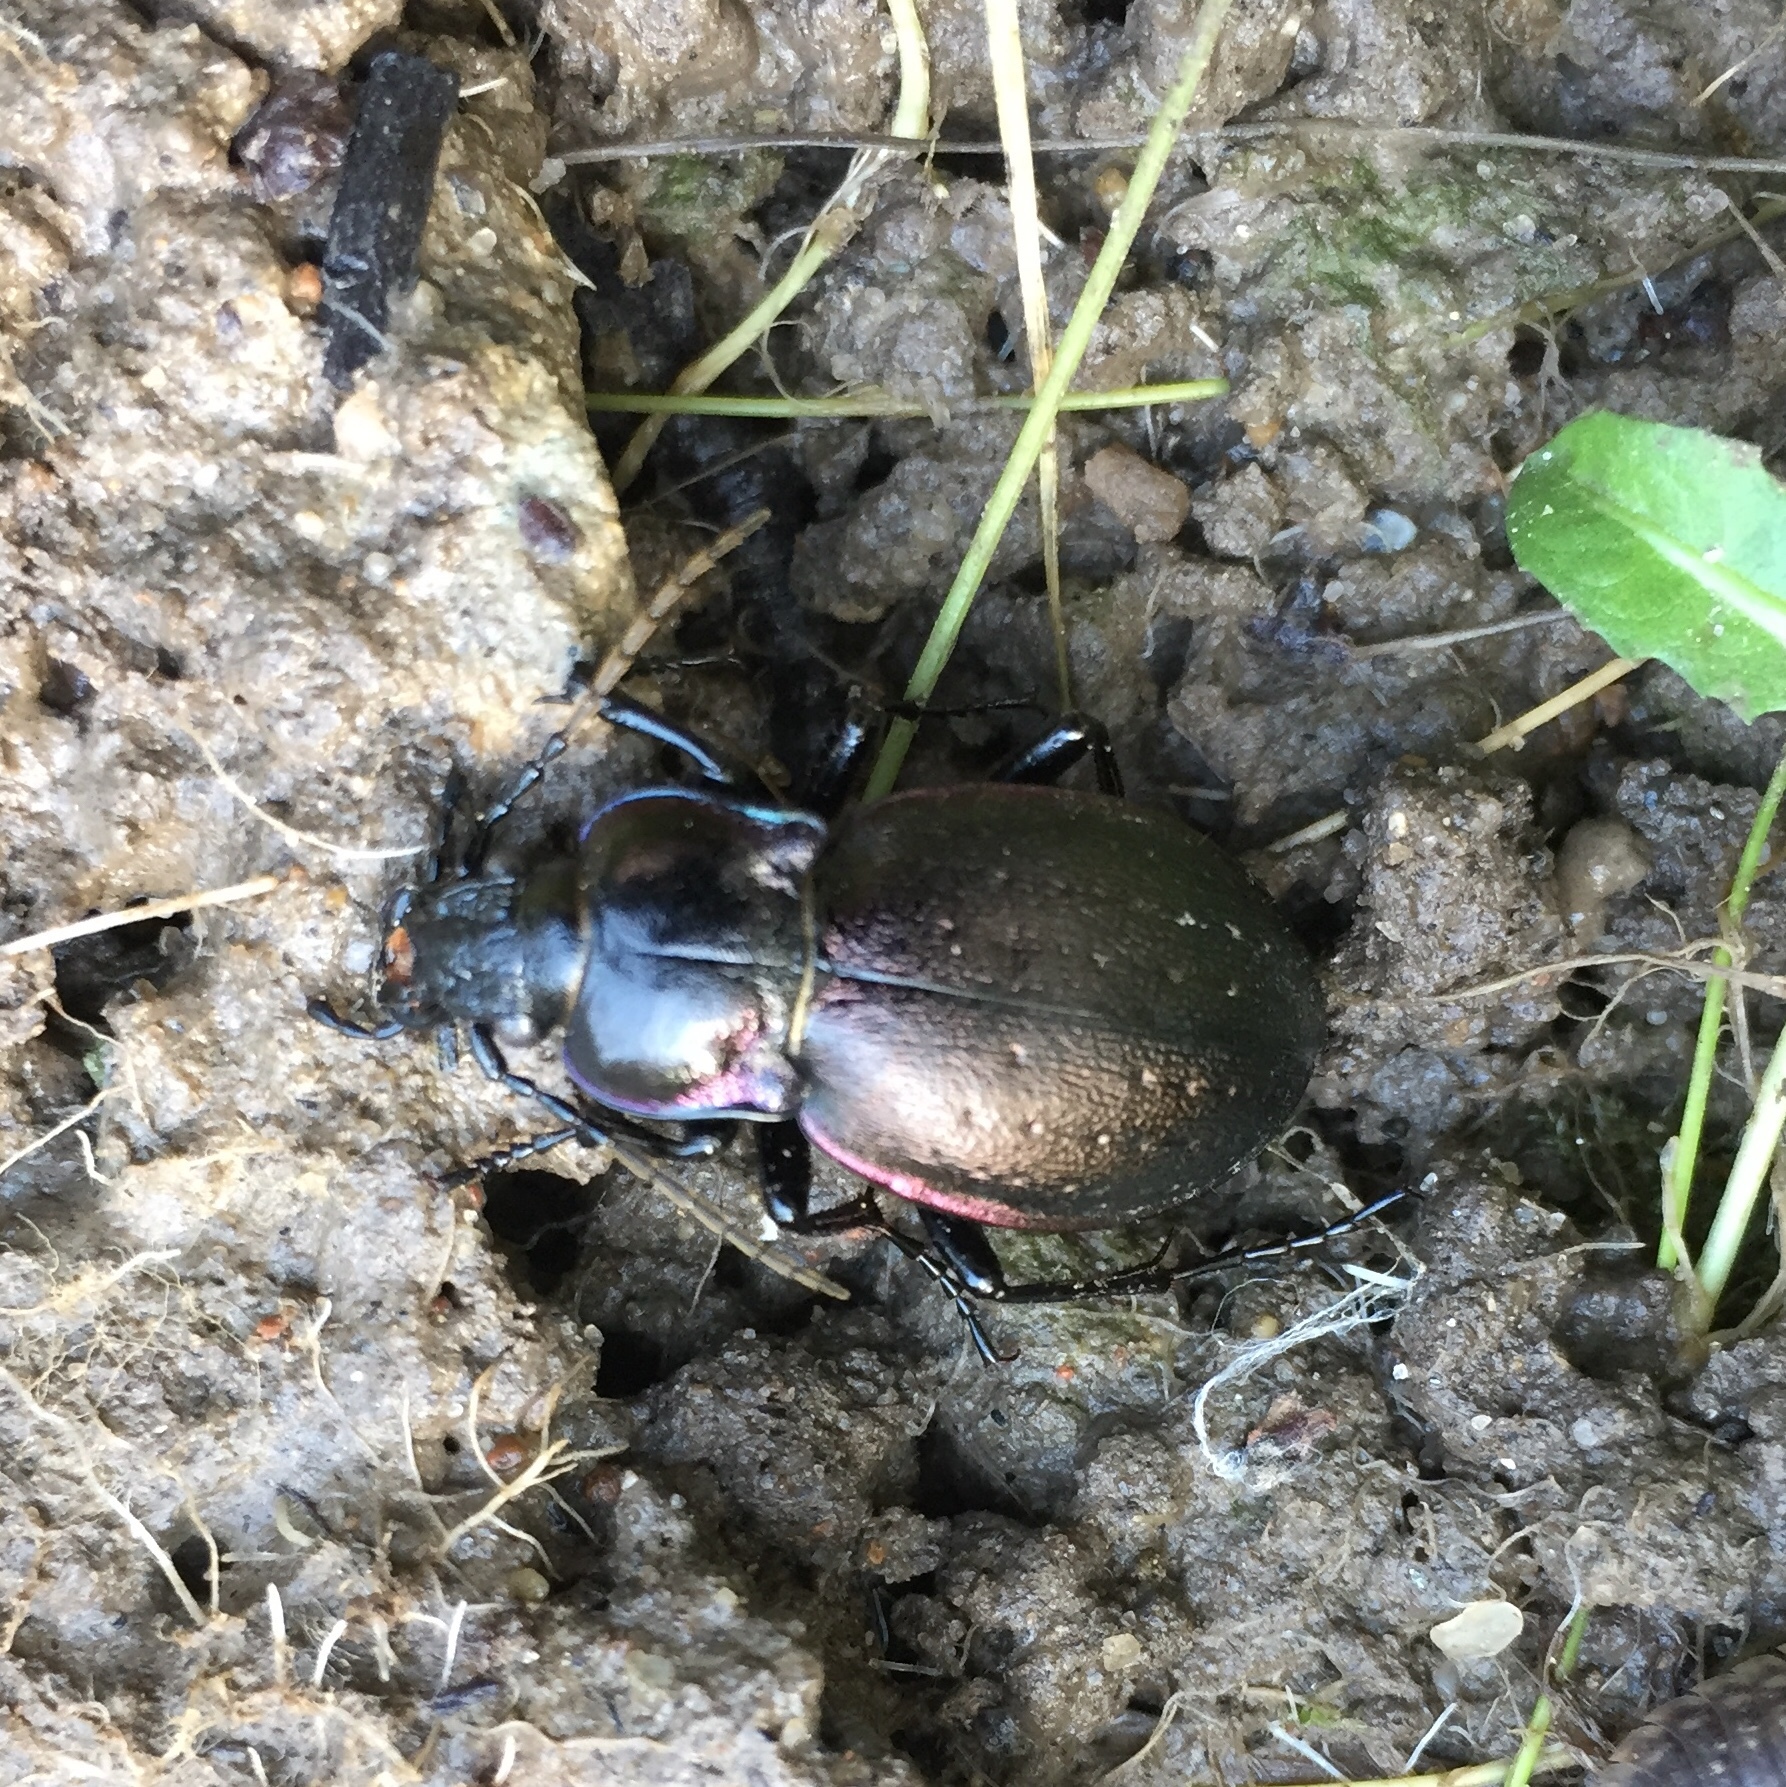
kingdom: Animalia
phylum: Arthropoda
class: Insecta
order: Coleoptera
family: Carabidae
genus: Carabus
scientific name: Carabus nemoralis
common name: European ground beetle
